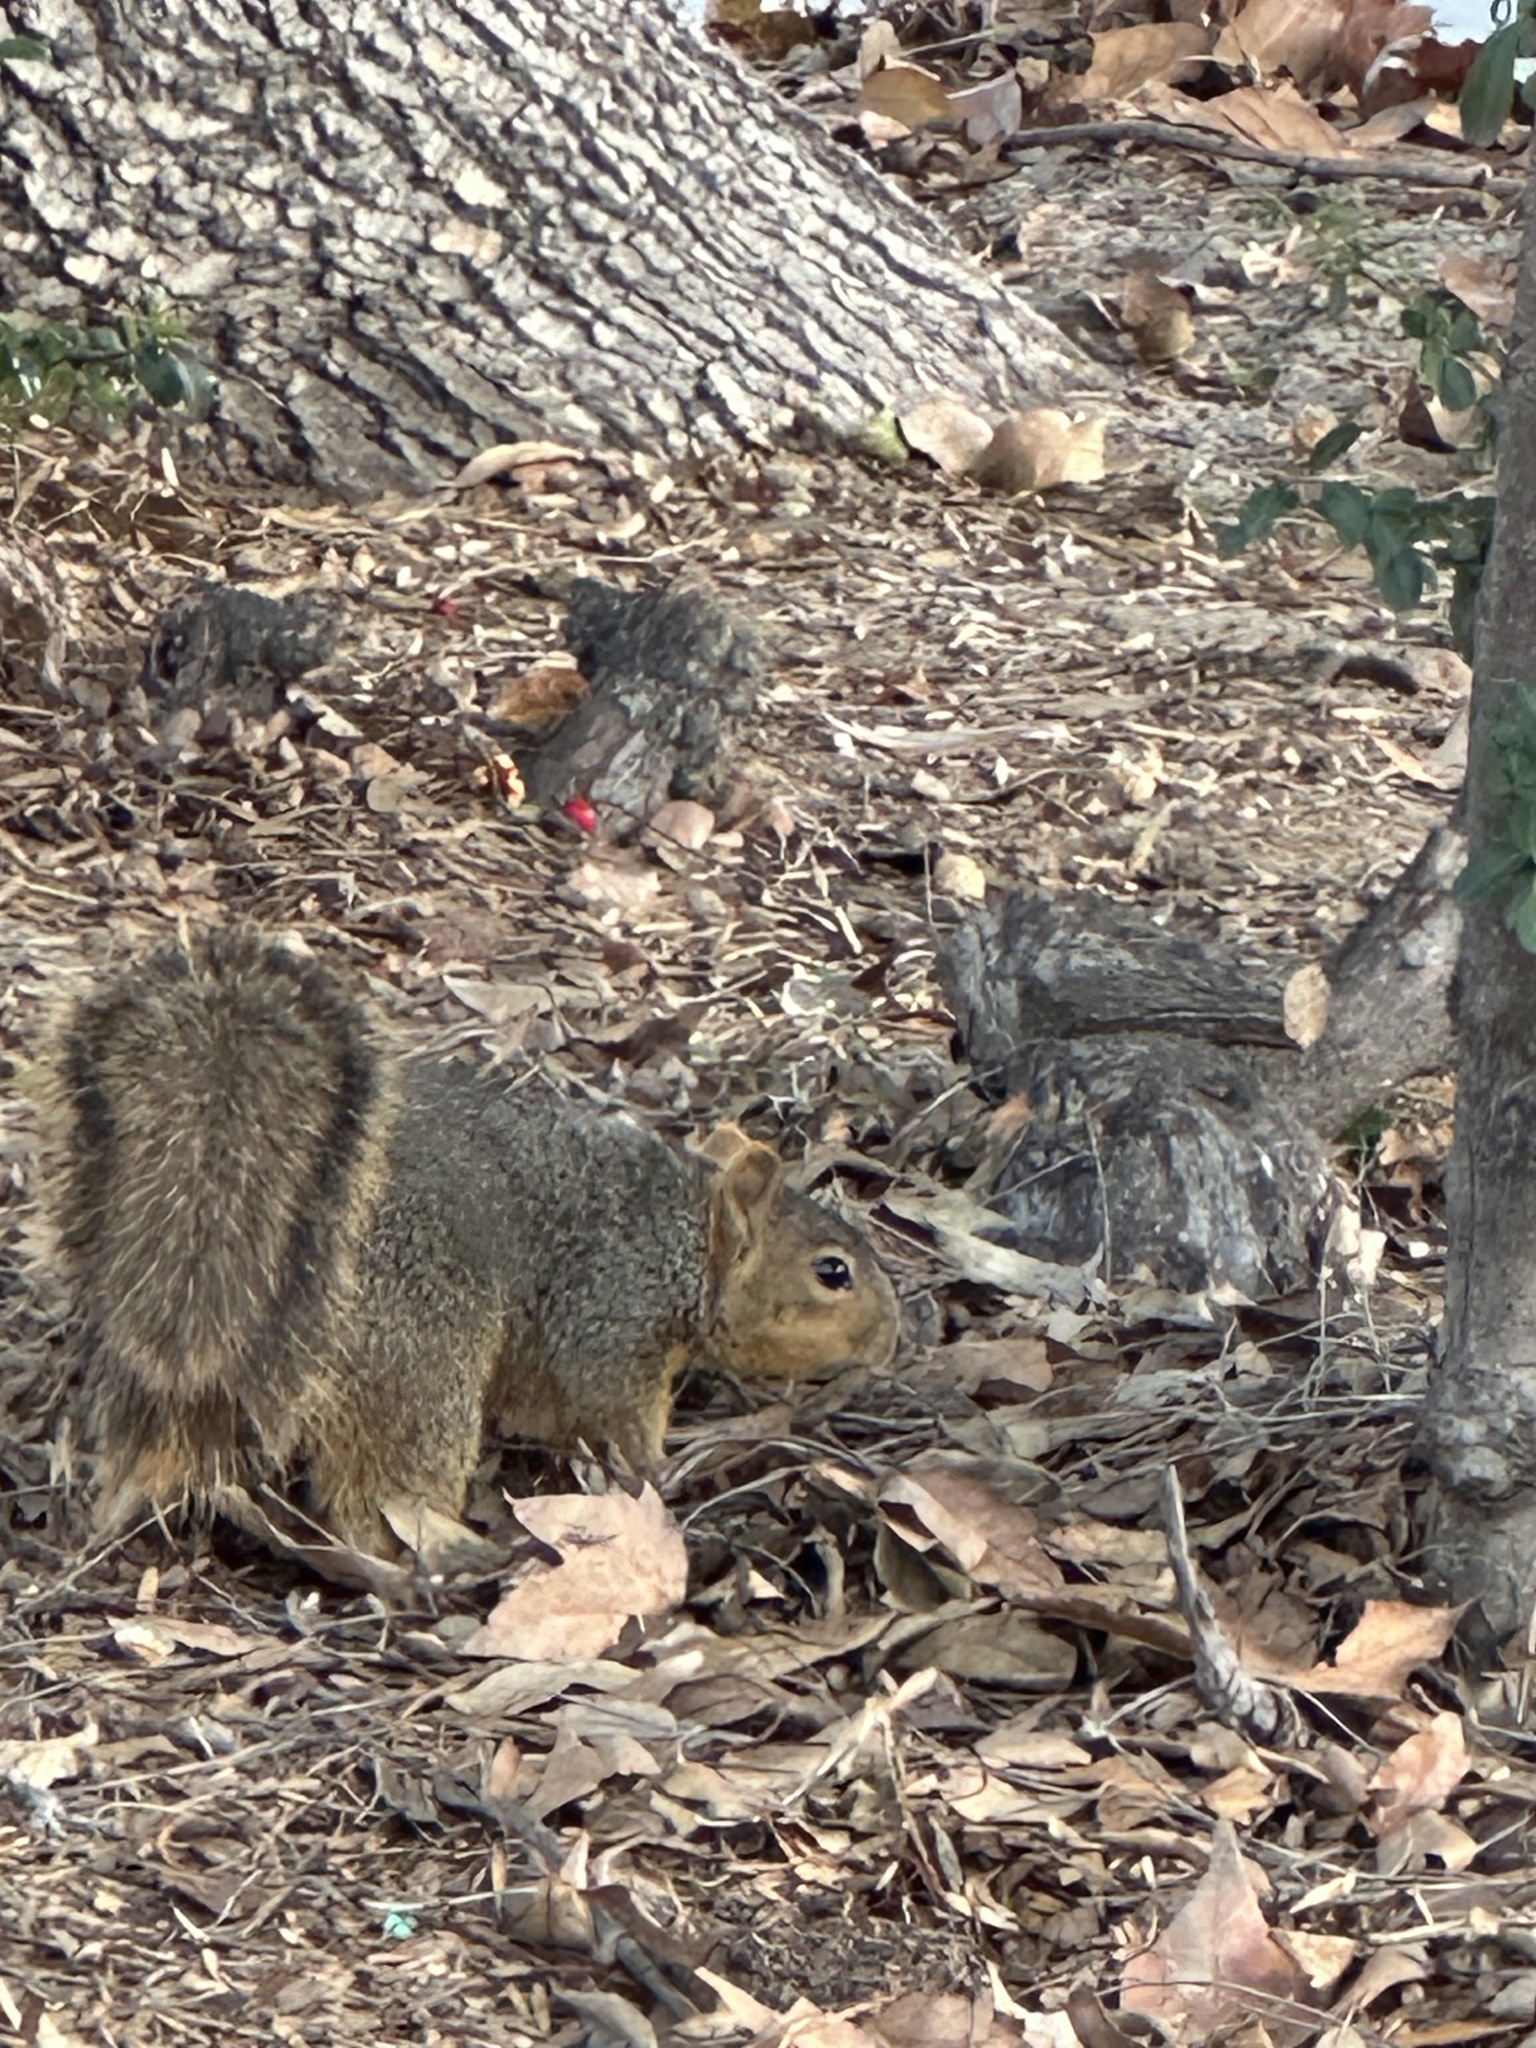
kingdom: Animalia
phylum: Chordata
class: Mammalia
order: Rodentia
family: Sciuridae
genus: Sciurus
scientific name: Sciurus niger
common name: Fox squirrel
